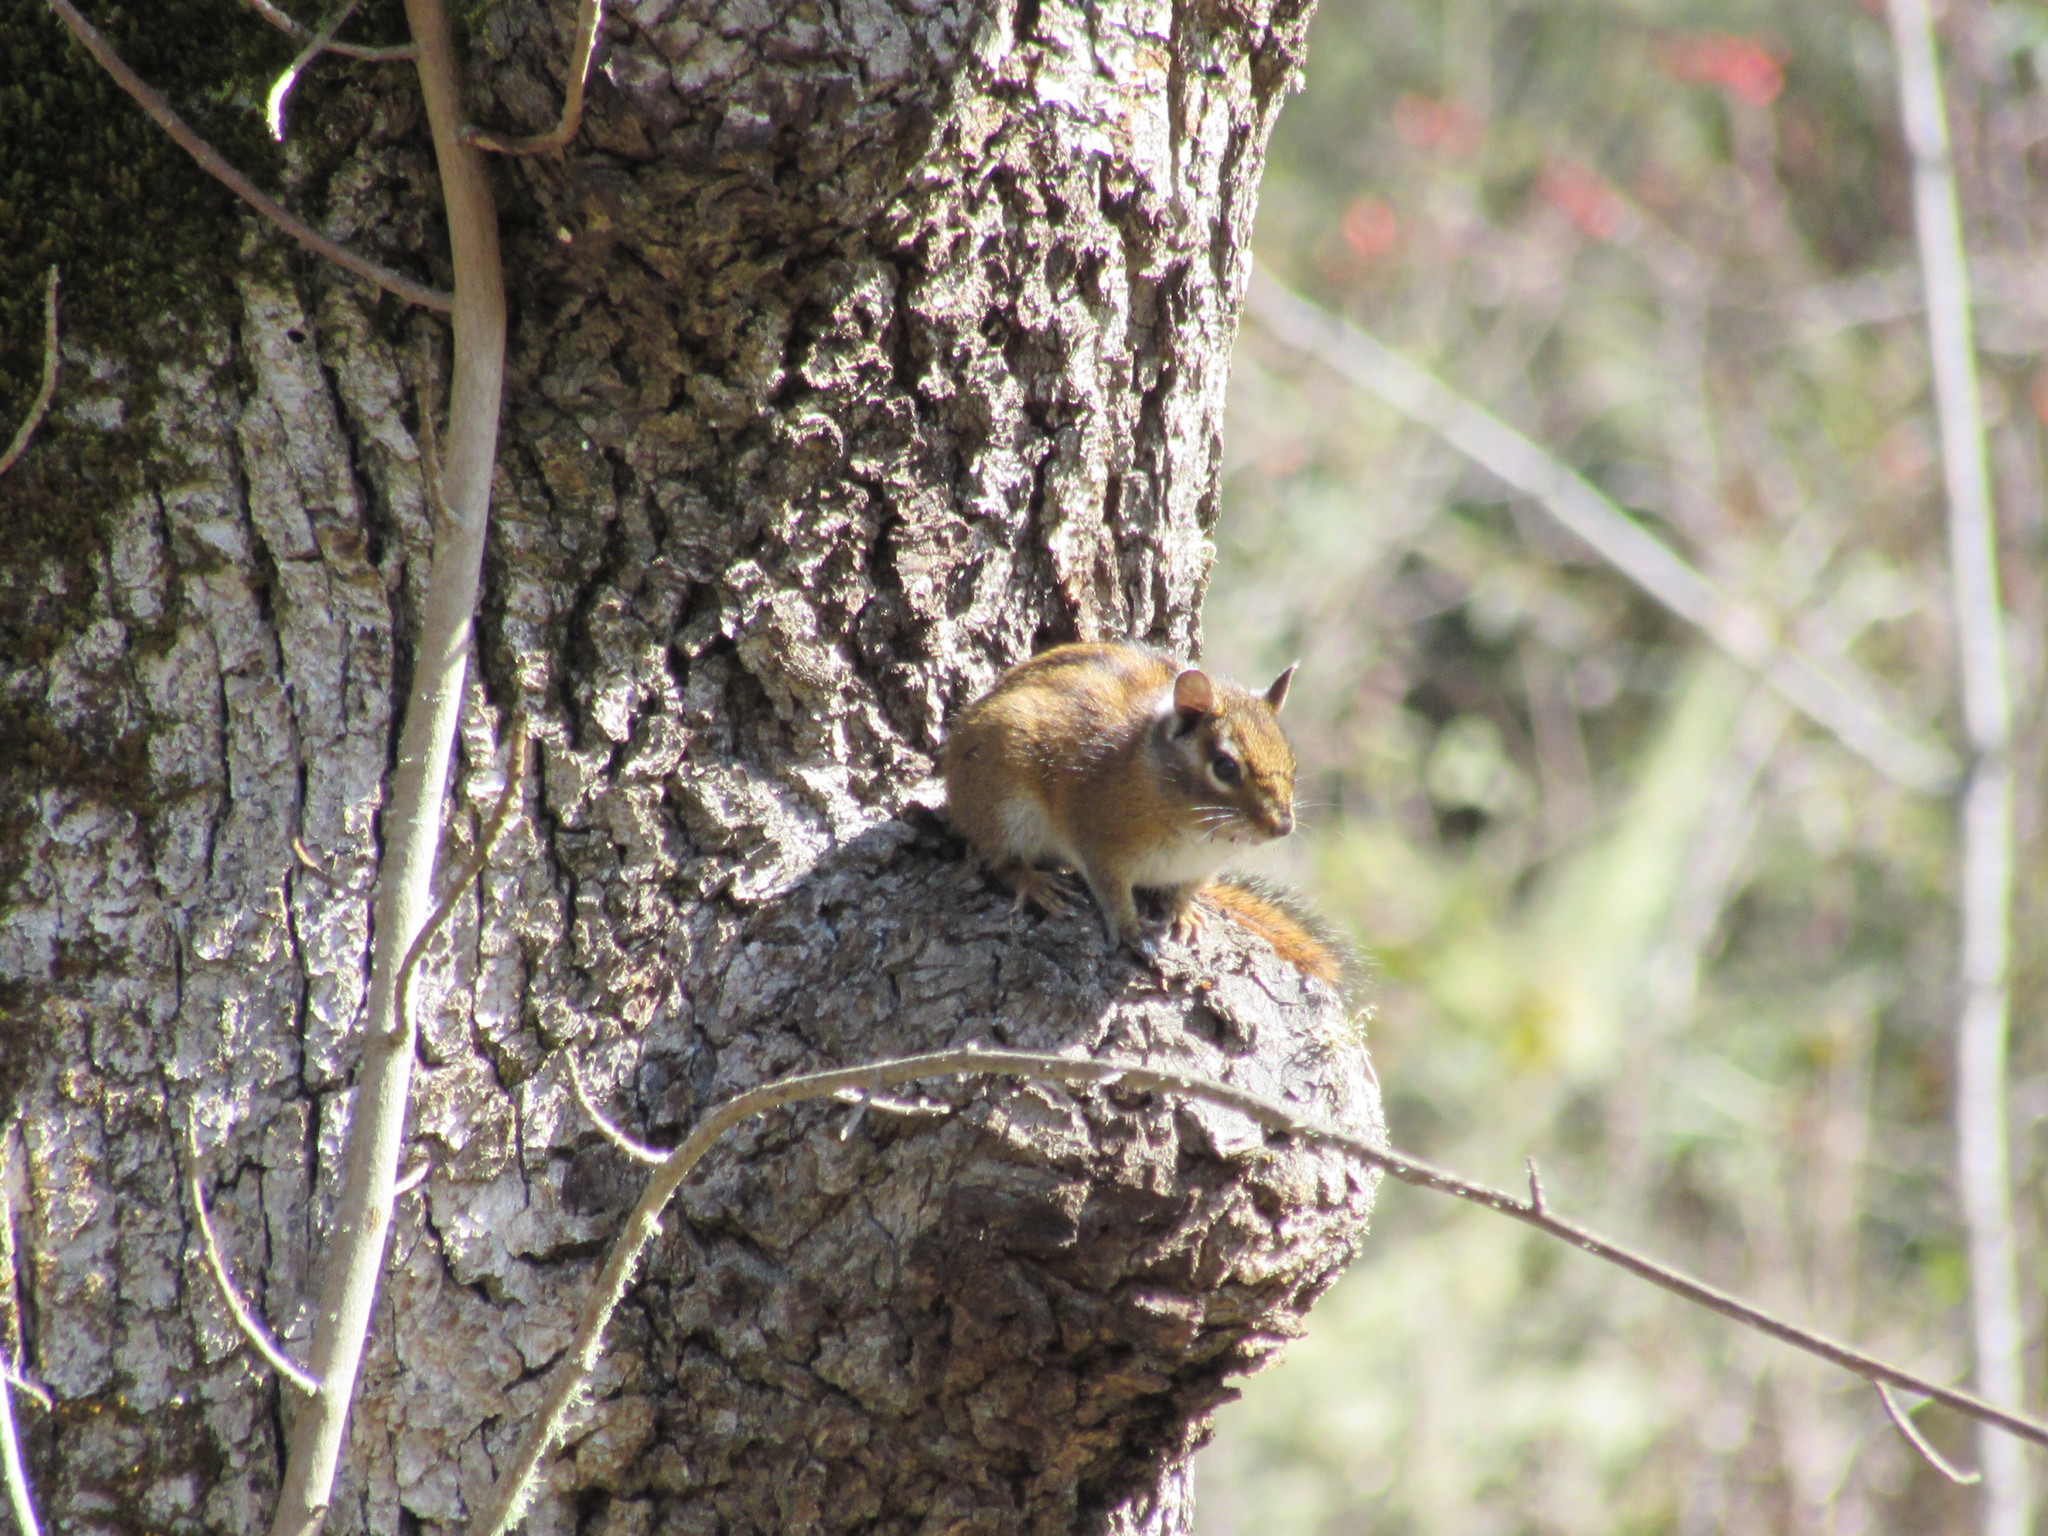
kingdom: Animalia
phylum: Chordata
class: Mammalia
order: Rodentia
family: Sciuridae
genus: Tamias
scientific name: Tamias townsendii
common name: Townsend's chipmunk
